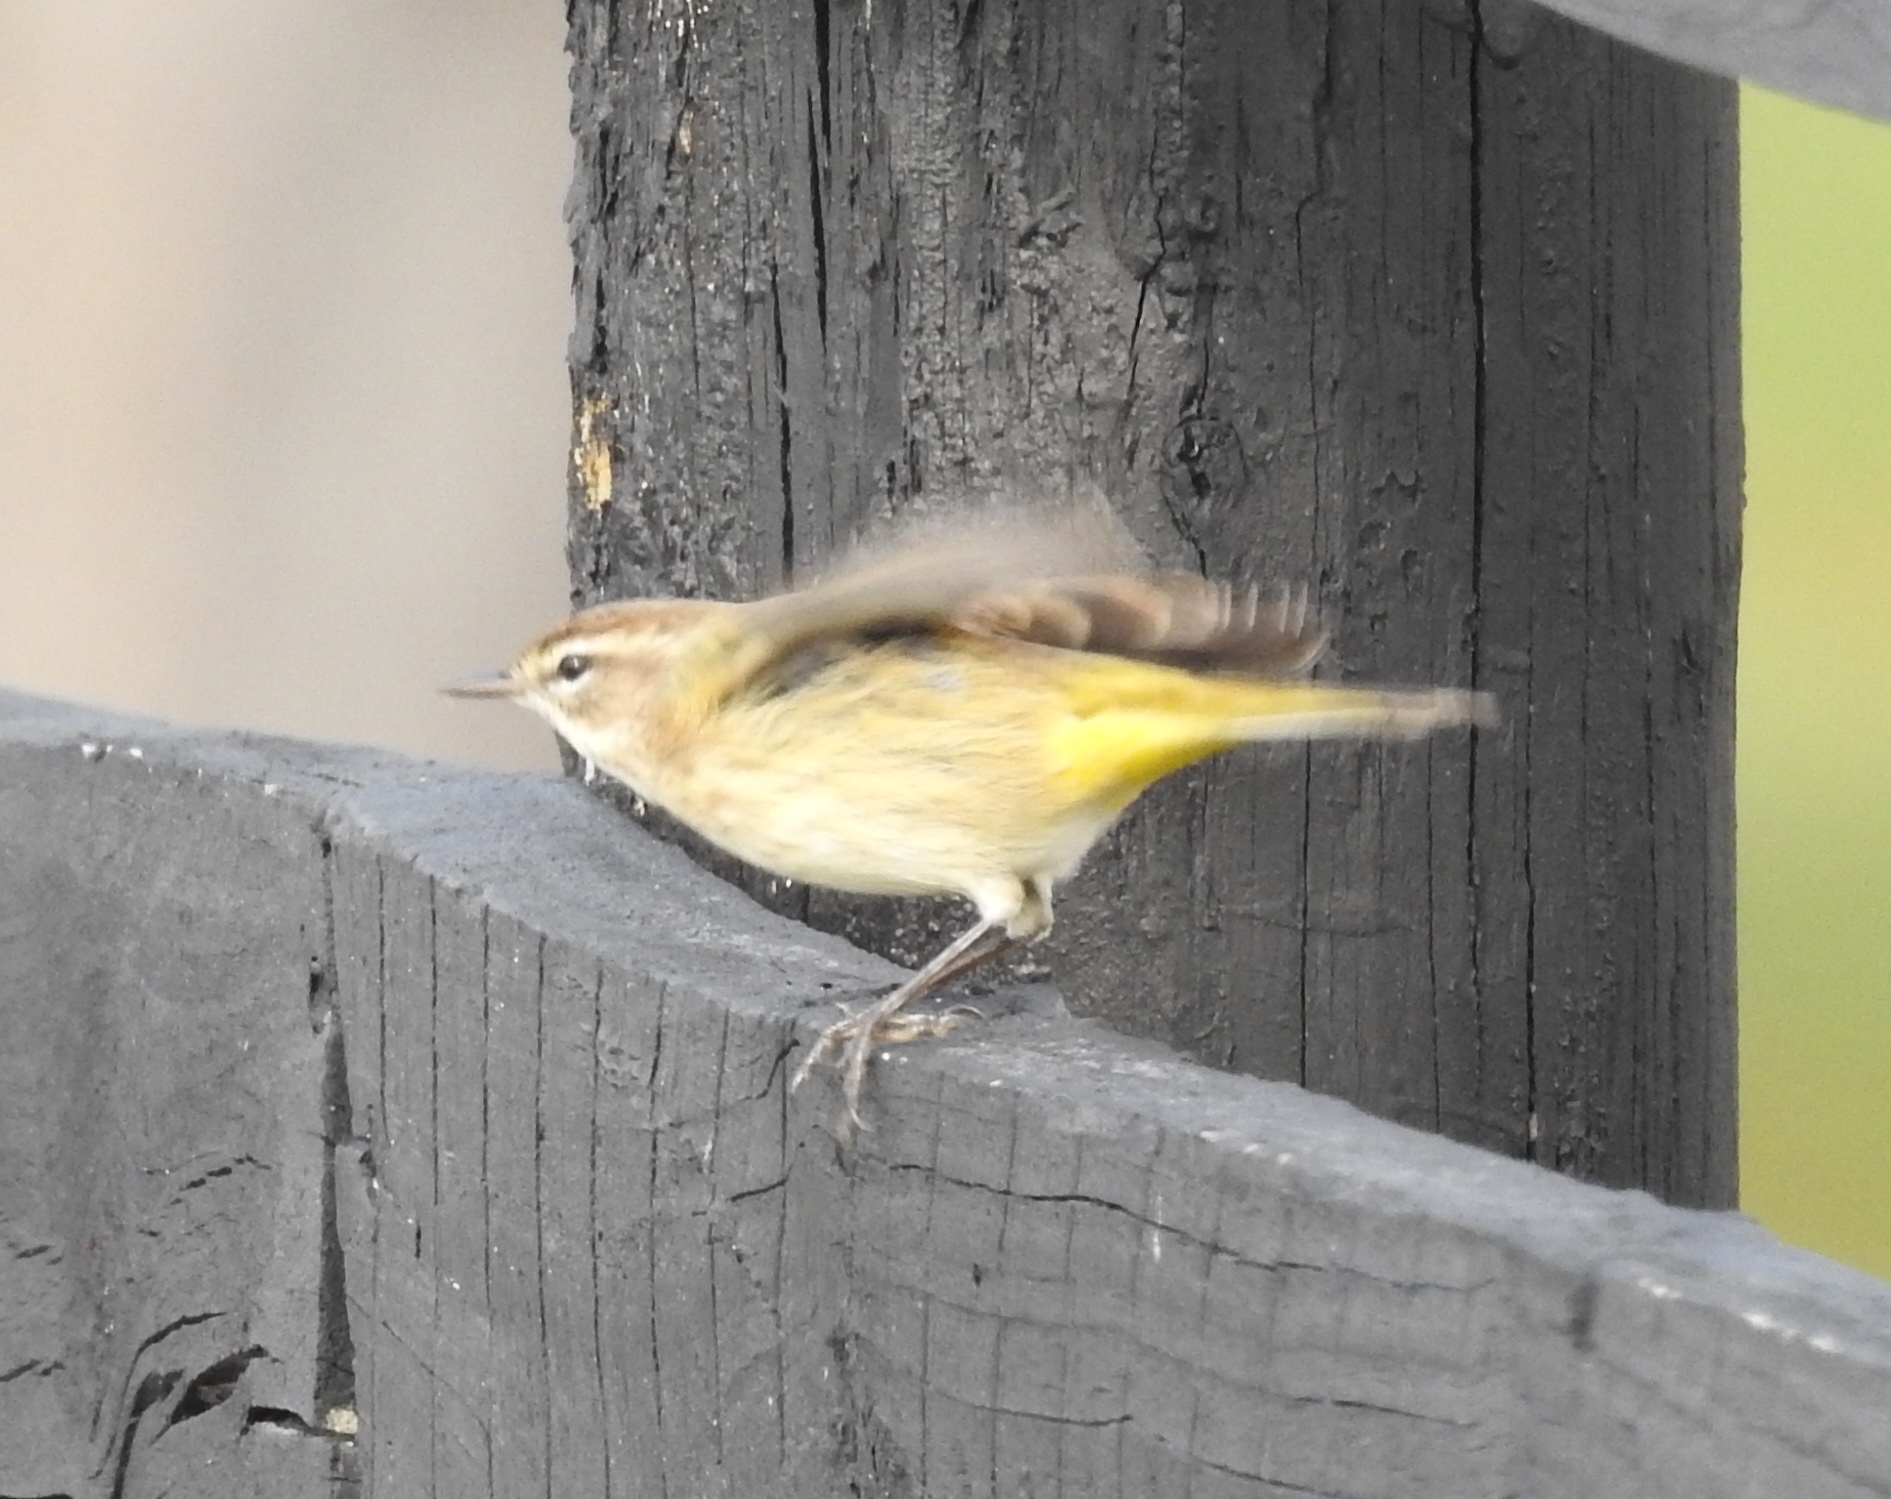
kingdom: Animalia
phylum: Chordata
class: Aves
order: Passeriformes
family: Parulidae
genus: Setophaga
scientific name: Setophaga palmarum
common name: Palm warbler
